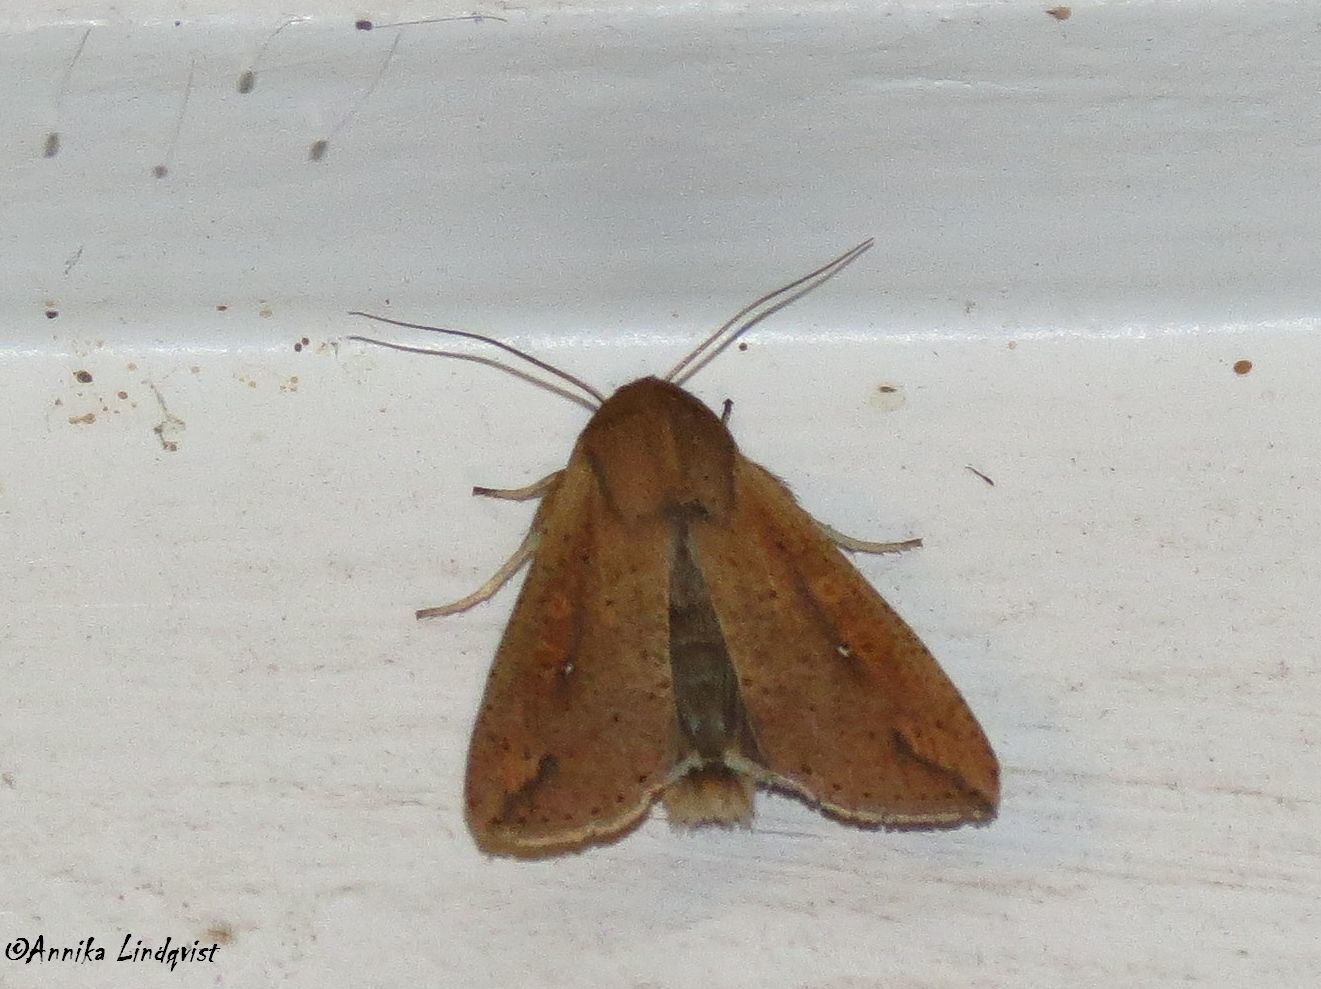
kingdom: Animalia
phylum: Arthropoda
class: Insecta
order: Lepidoptera
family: Noctuidae
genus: Mythimna
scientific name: Mythimna unipuncta
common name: White-speck
